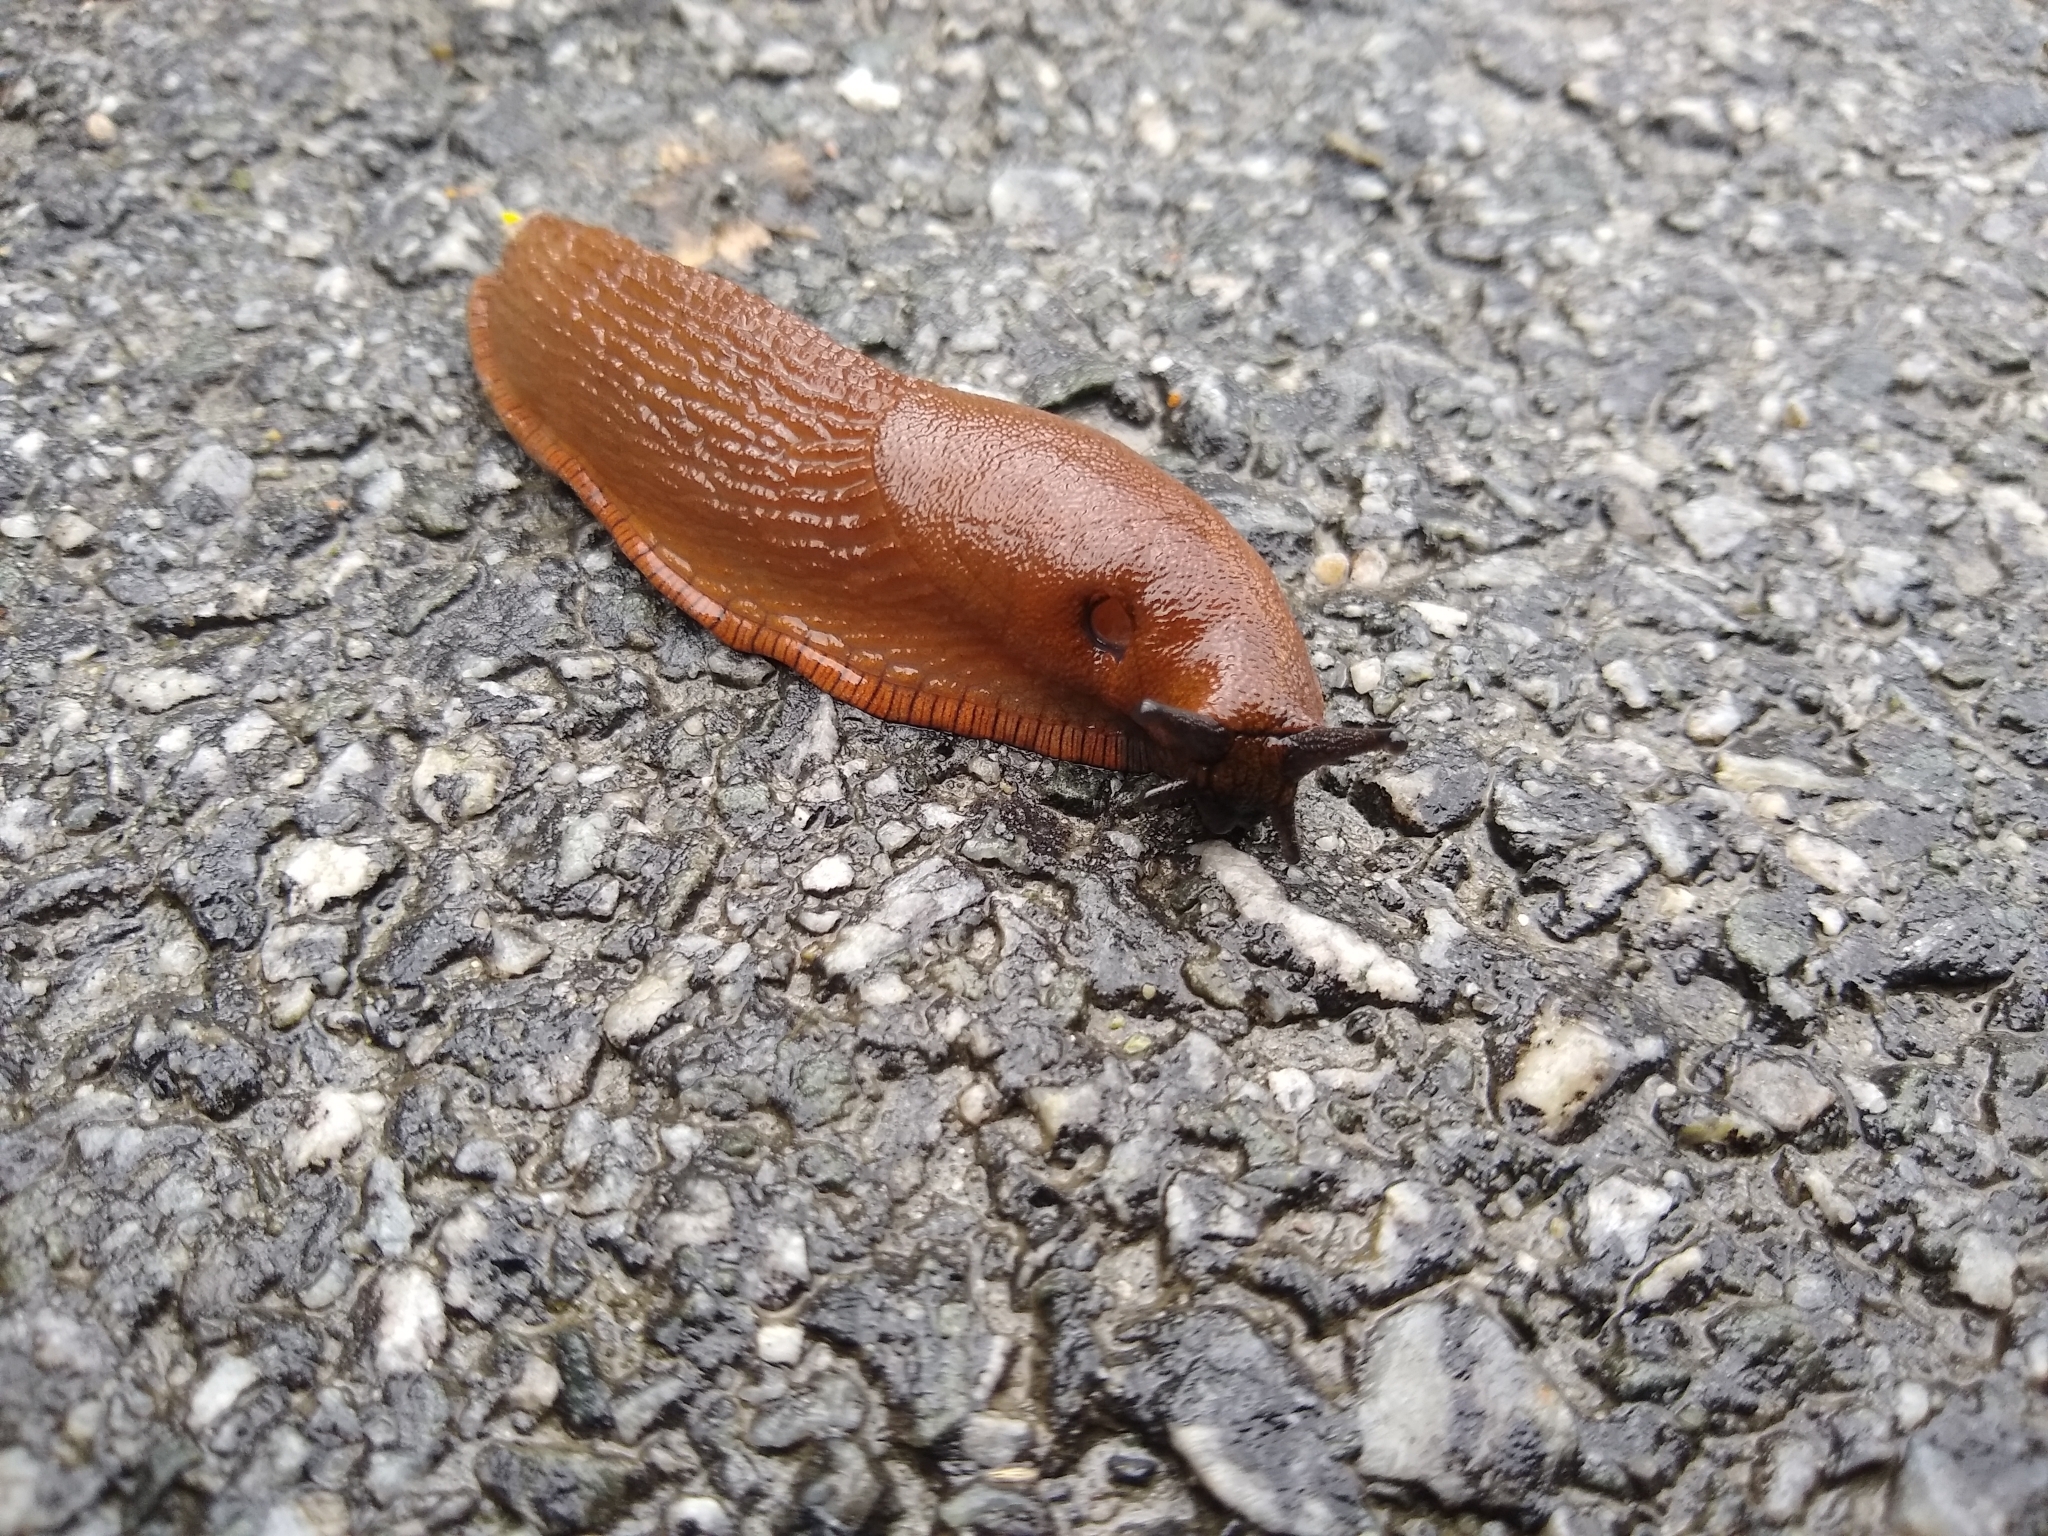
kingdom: Animalia
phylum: Mollusca
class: Gastropoda
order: Stylommatophora
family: Arionidae
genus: Arion
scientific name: Arion vulgaris
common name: Lusitanian slug
